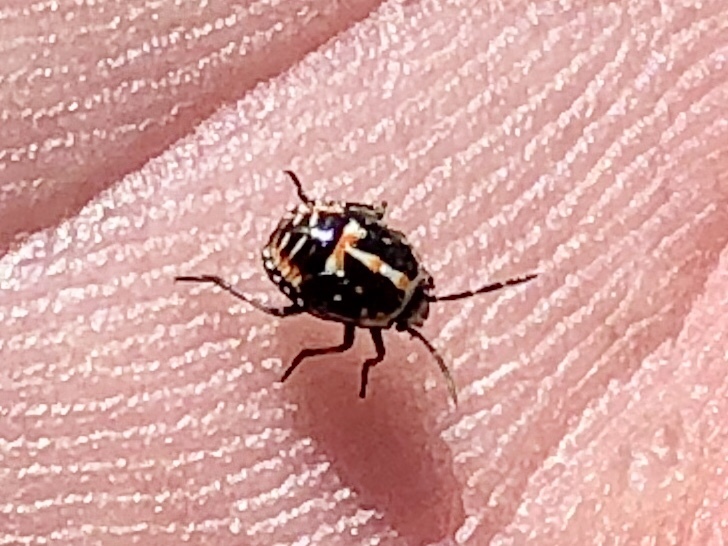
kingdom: Animalia
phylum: Arthropoda
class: Insecta
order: Hemiptera
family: Pentatomidae
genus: Bagrada
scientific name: Bagrada hilaris
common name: Bagrada bug
